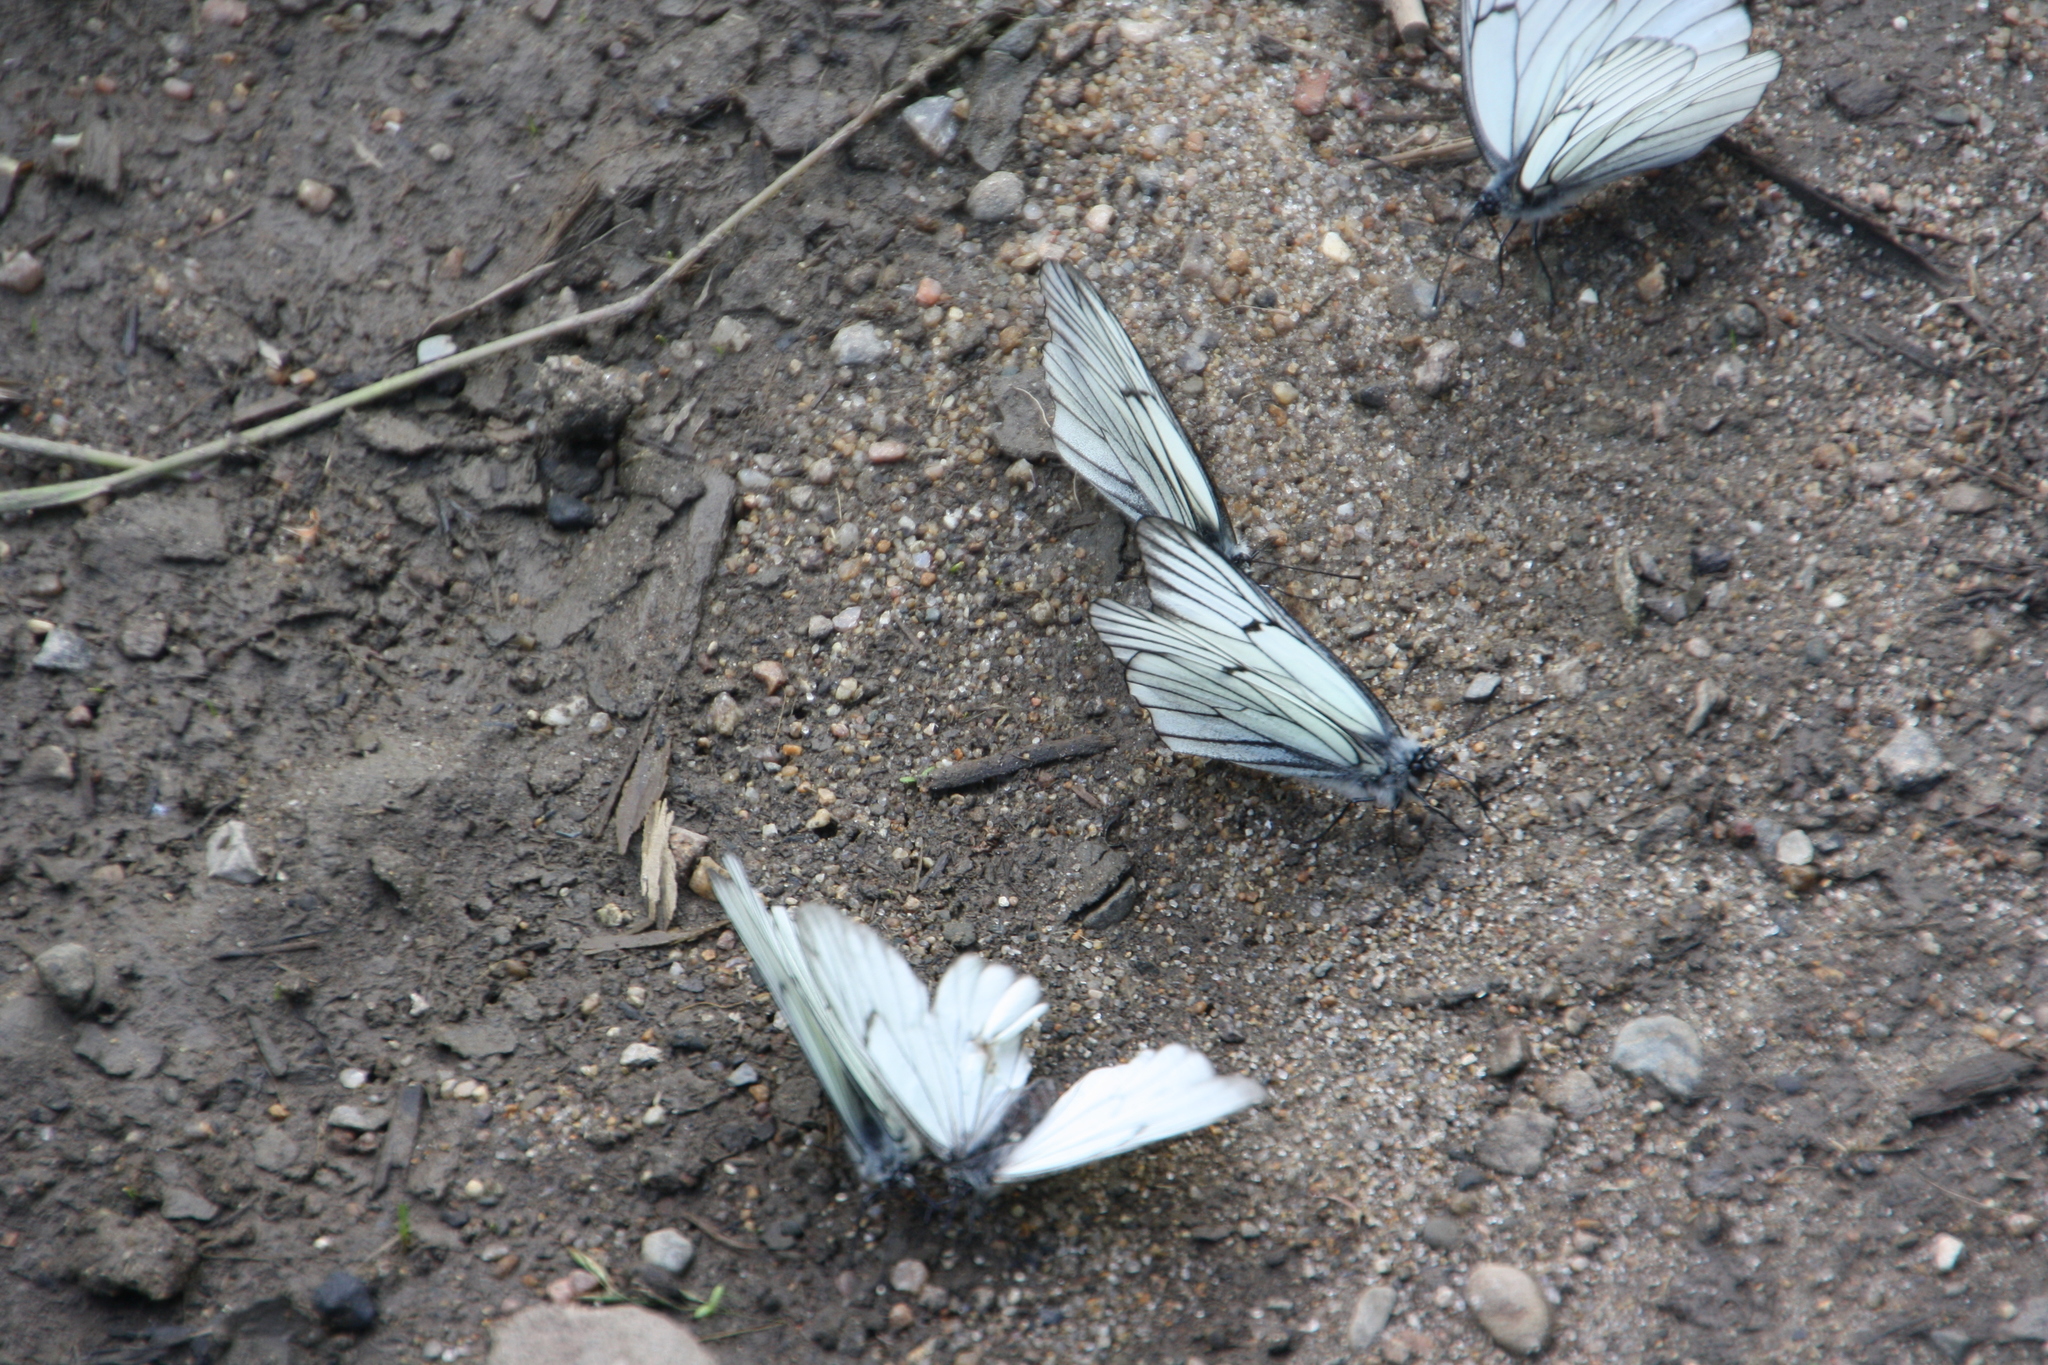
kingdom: Animalia
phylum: Arthropoda
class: Insecta
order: Lepidoptera
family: Pieridae
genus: Aporia
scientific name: Aporia crataegi
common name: Black-veined white
